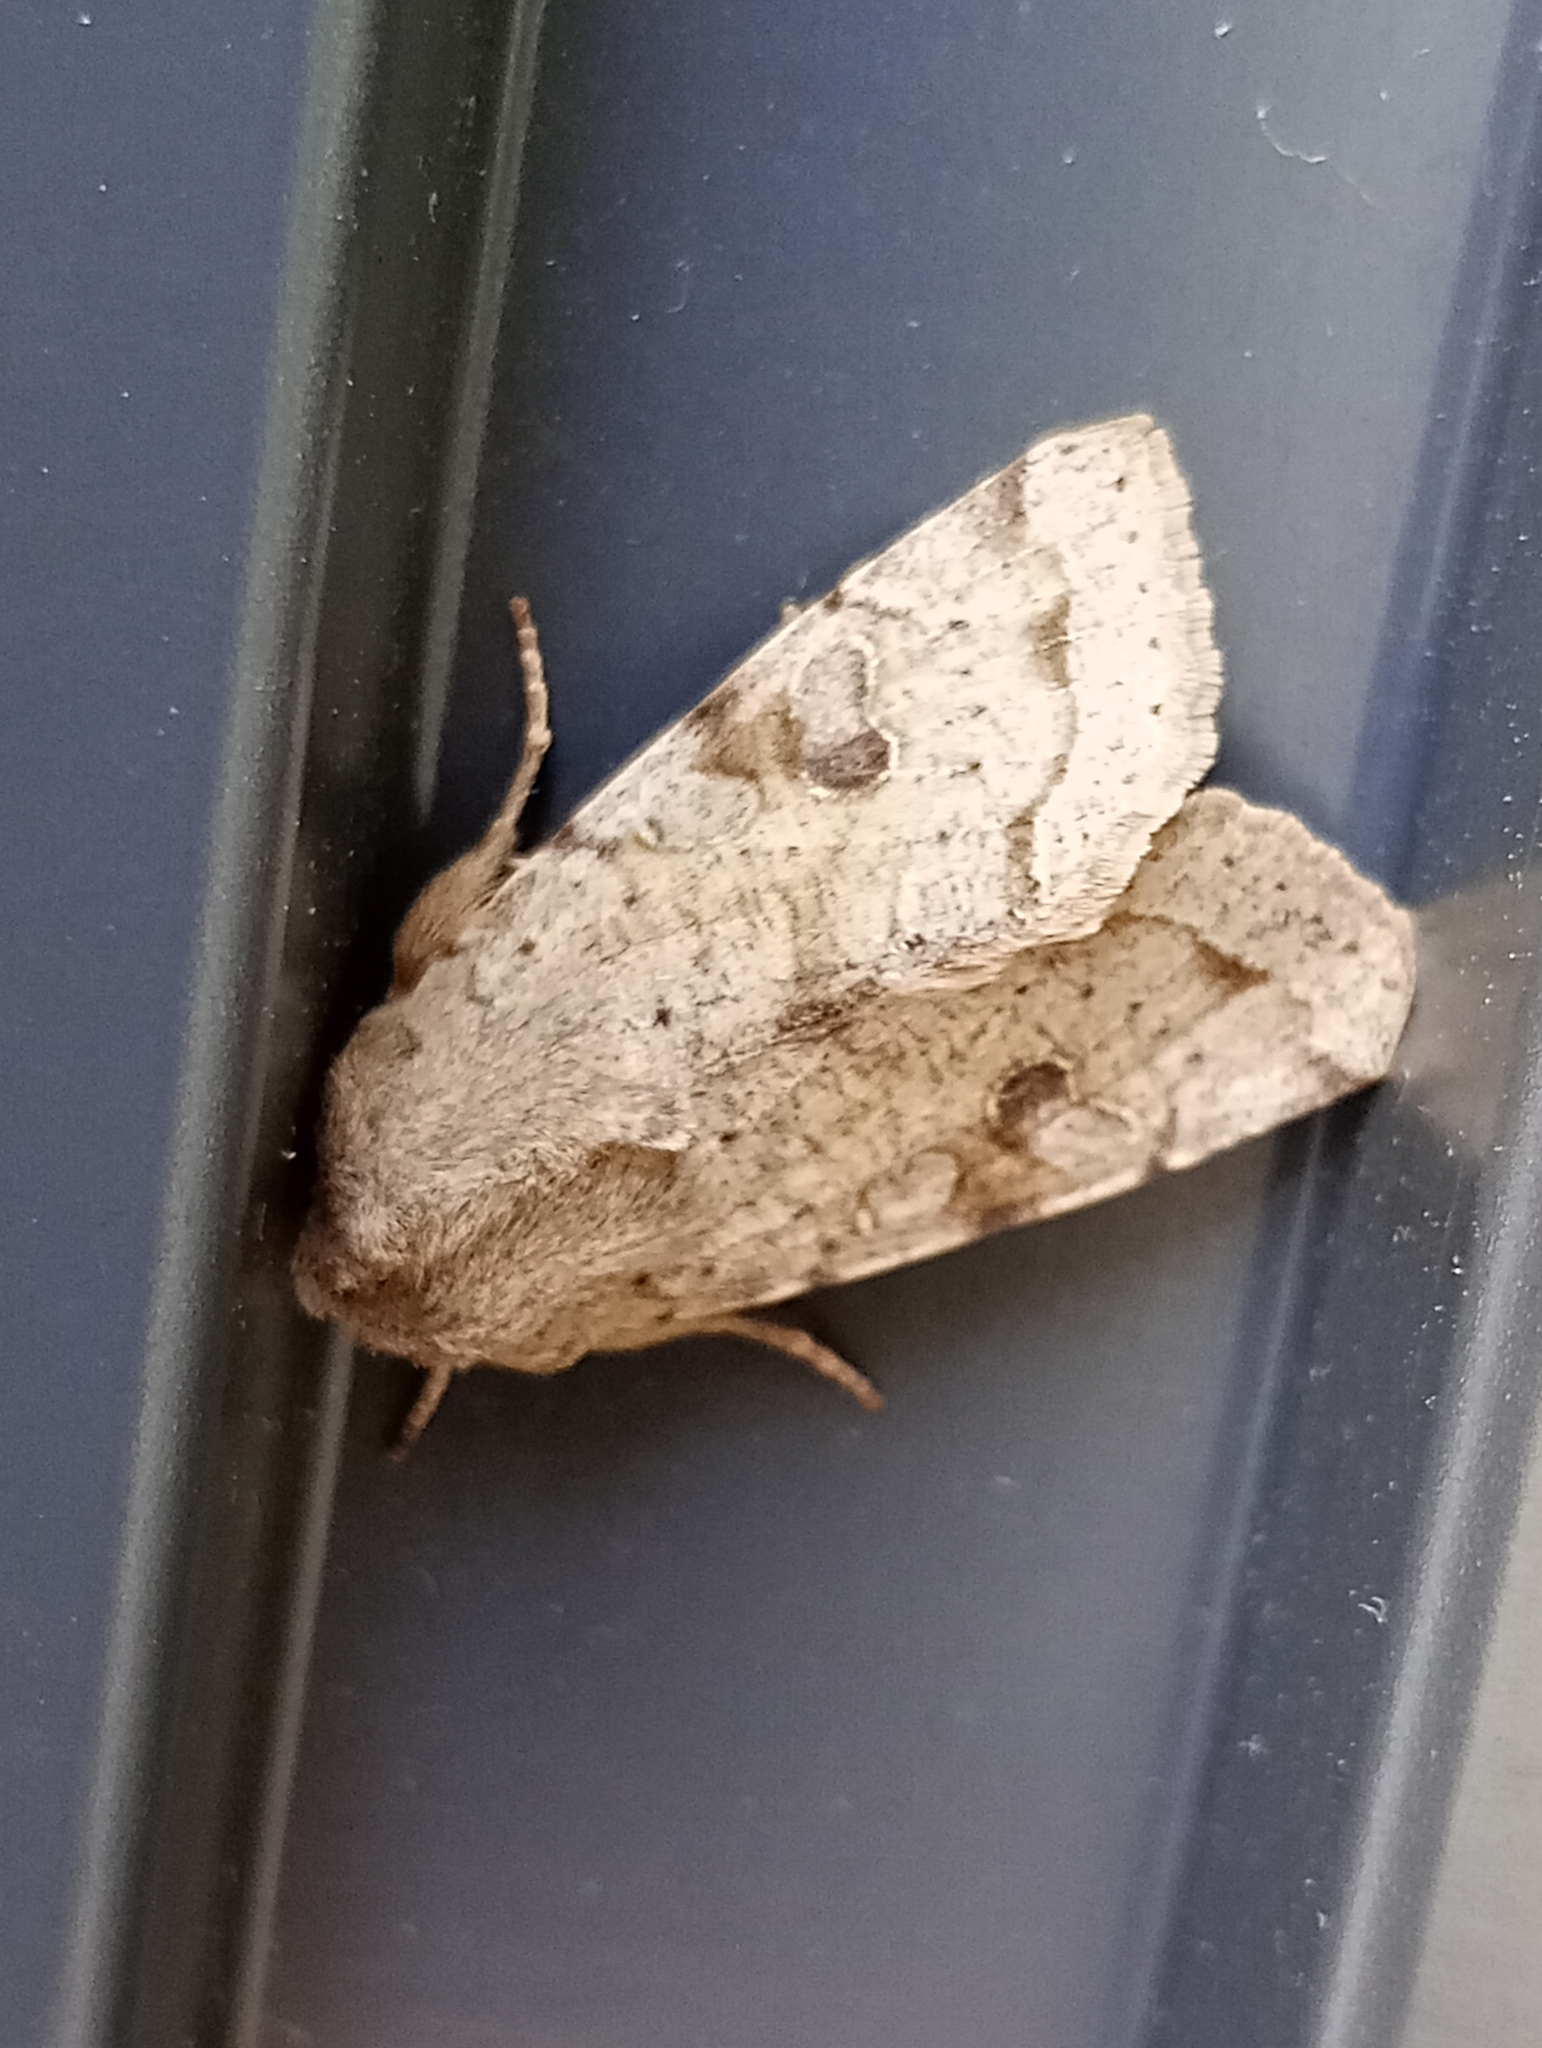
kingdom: Animalia
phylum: Arthropoda
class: Insecta
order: Lepidoptera
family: Noctuidae
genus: Orthosia
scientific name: Orthosia incerta
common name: Clouded drab
